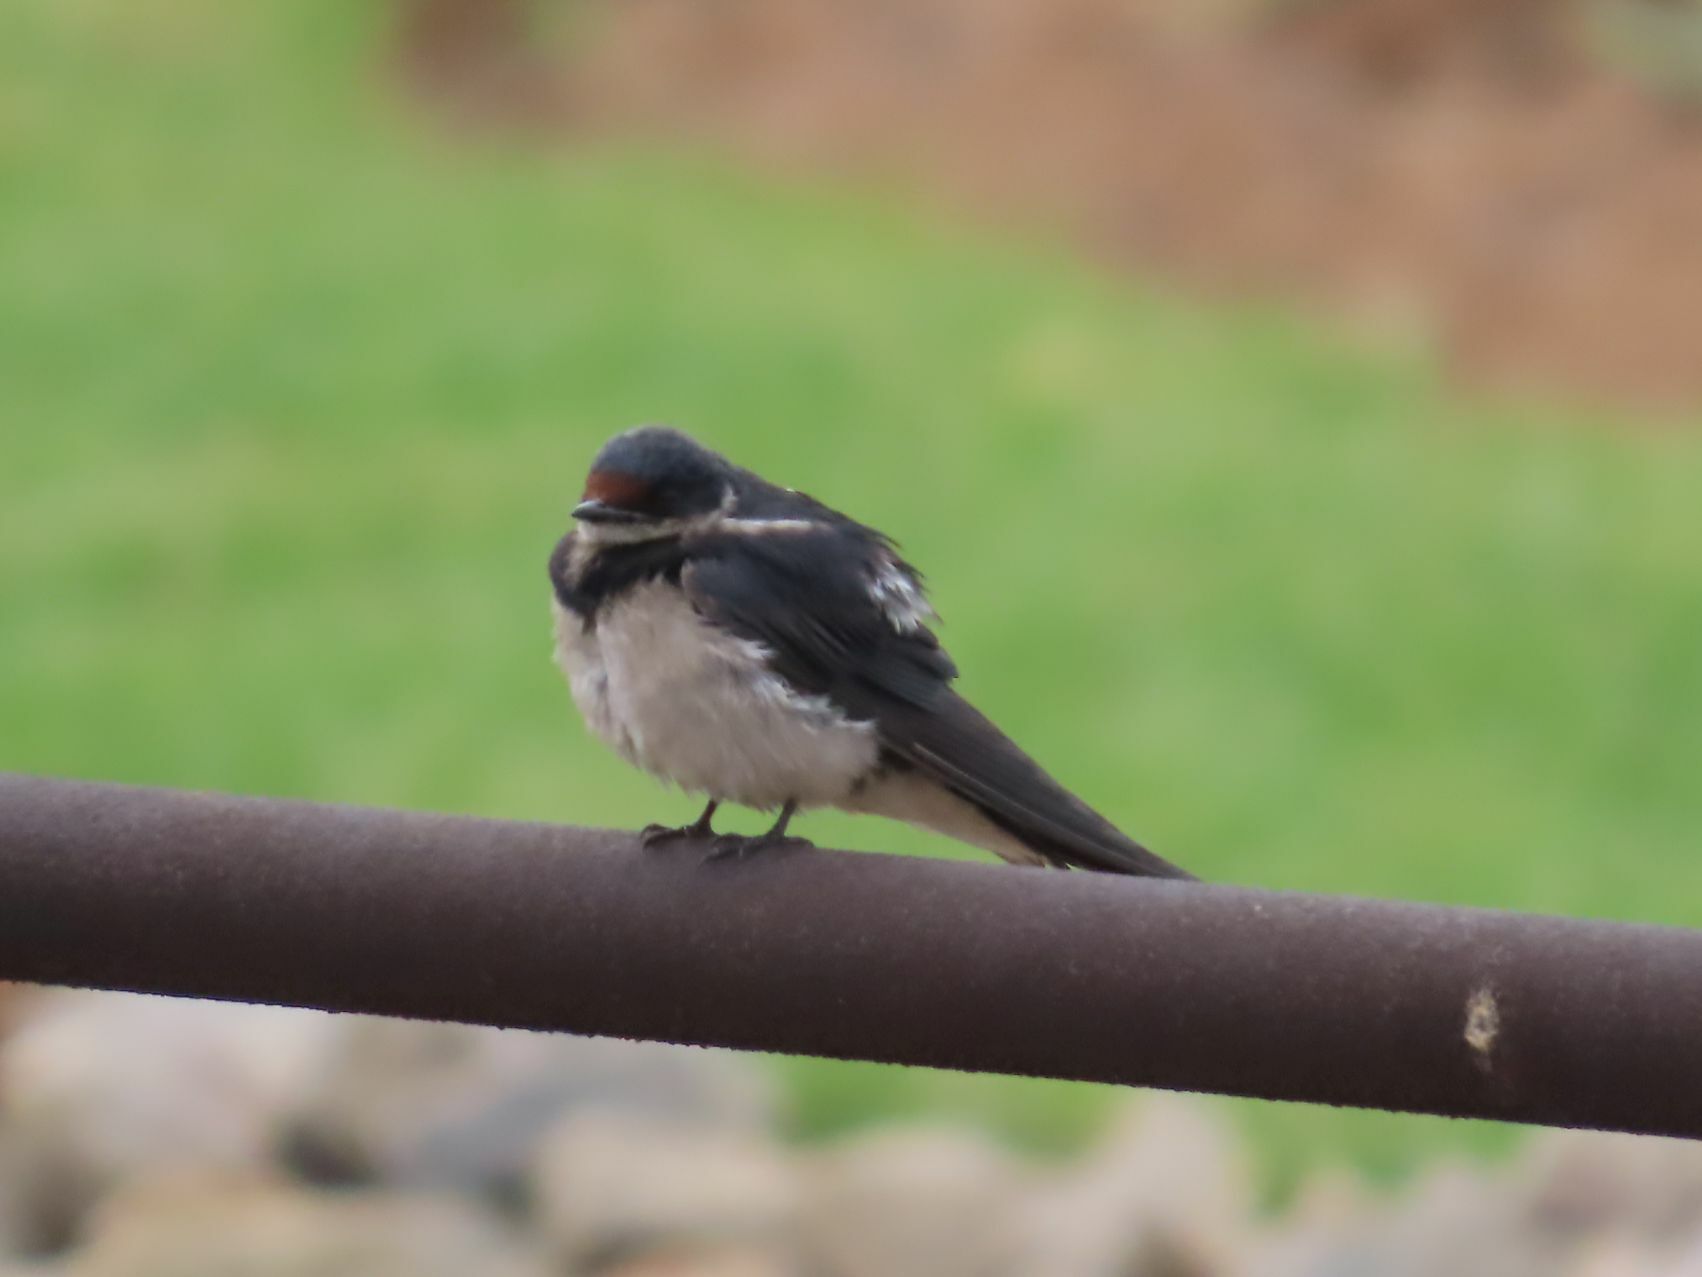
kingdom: Animalia
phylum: Chordata
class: Aves
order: Passeriformes
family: Hirundinidae
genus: Hirundo
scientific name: Hirundo albigularis
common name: White-throated swallow
